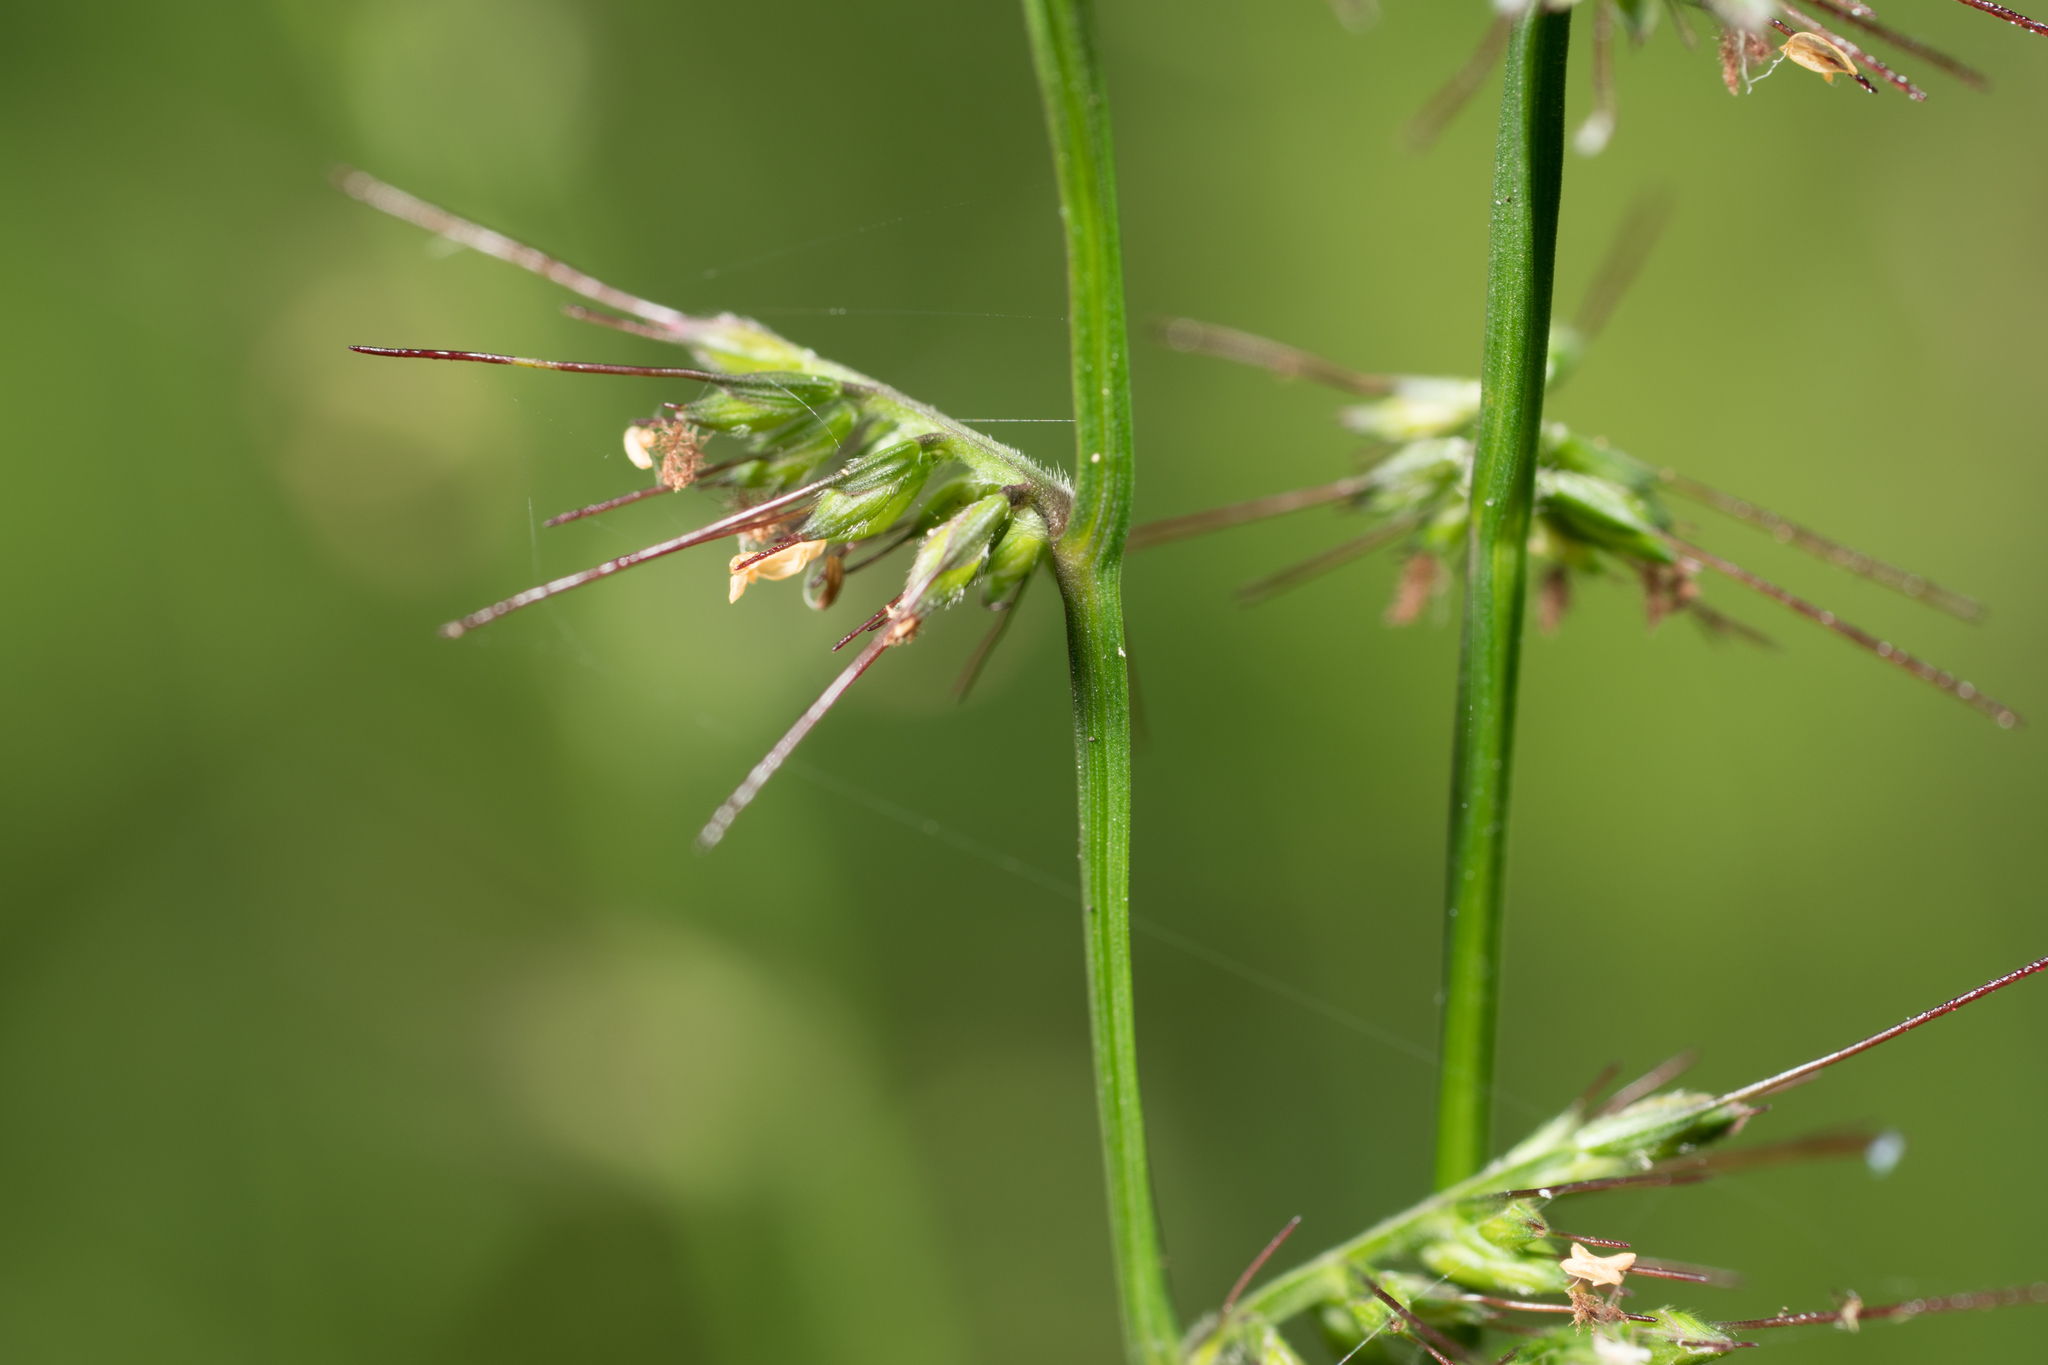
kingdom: Plantae
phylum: Tracheophyta
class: Liliopsida
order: Poales
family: Poaceae
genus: Oplismenus
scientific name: Oplismenus hirtellus
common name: Basketgrass
